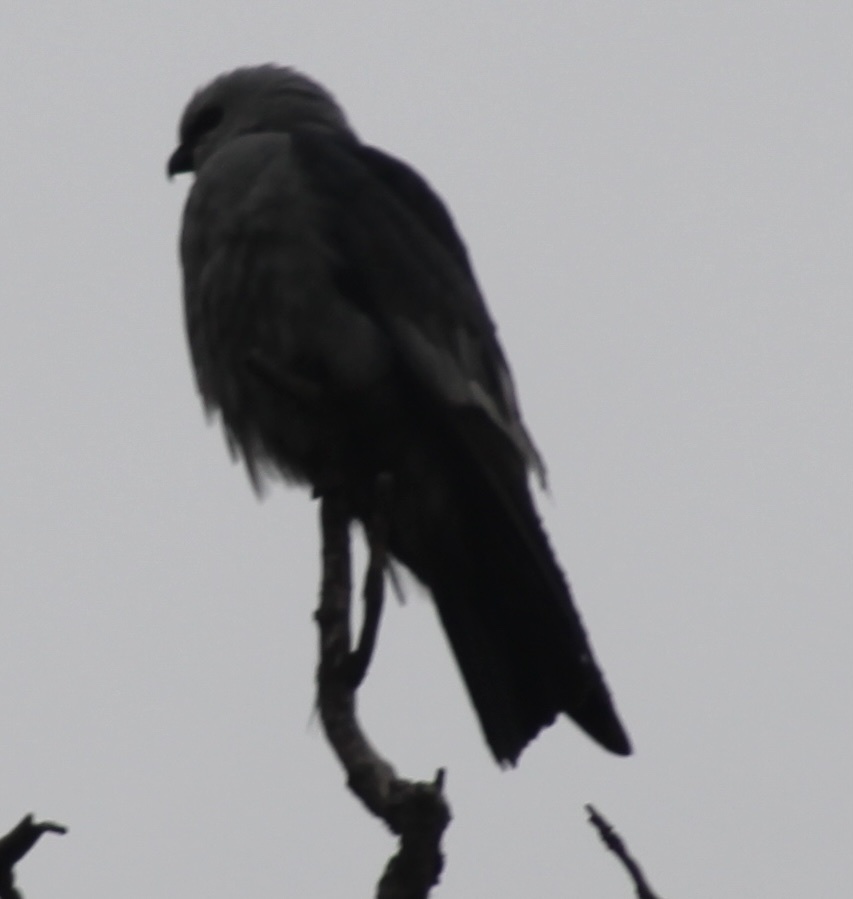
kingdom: Animalia
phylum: Chordata
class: Aves
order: Accipitriformes
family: Accipitridae
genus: Ictinia
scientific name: Ictinia mississippiensis
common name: Mississippi kite
